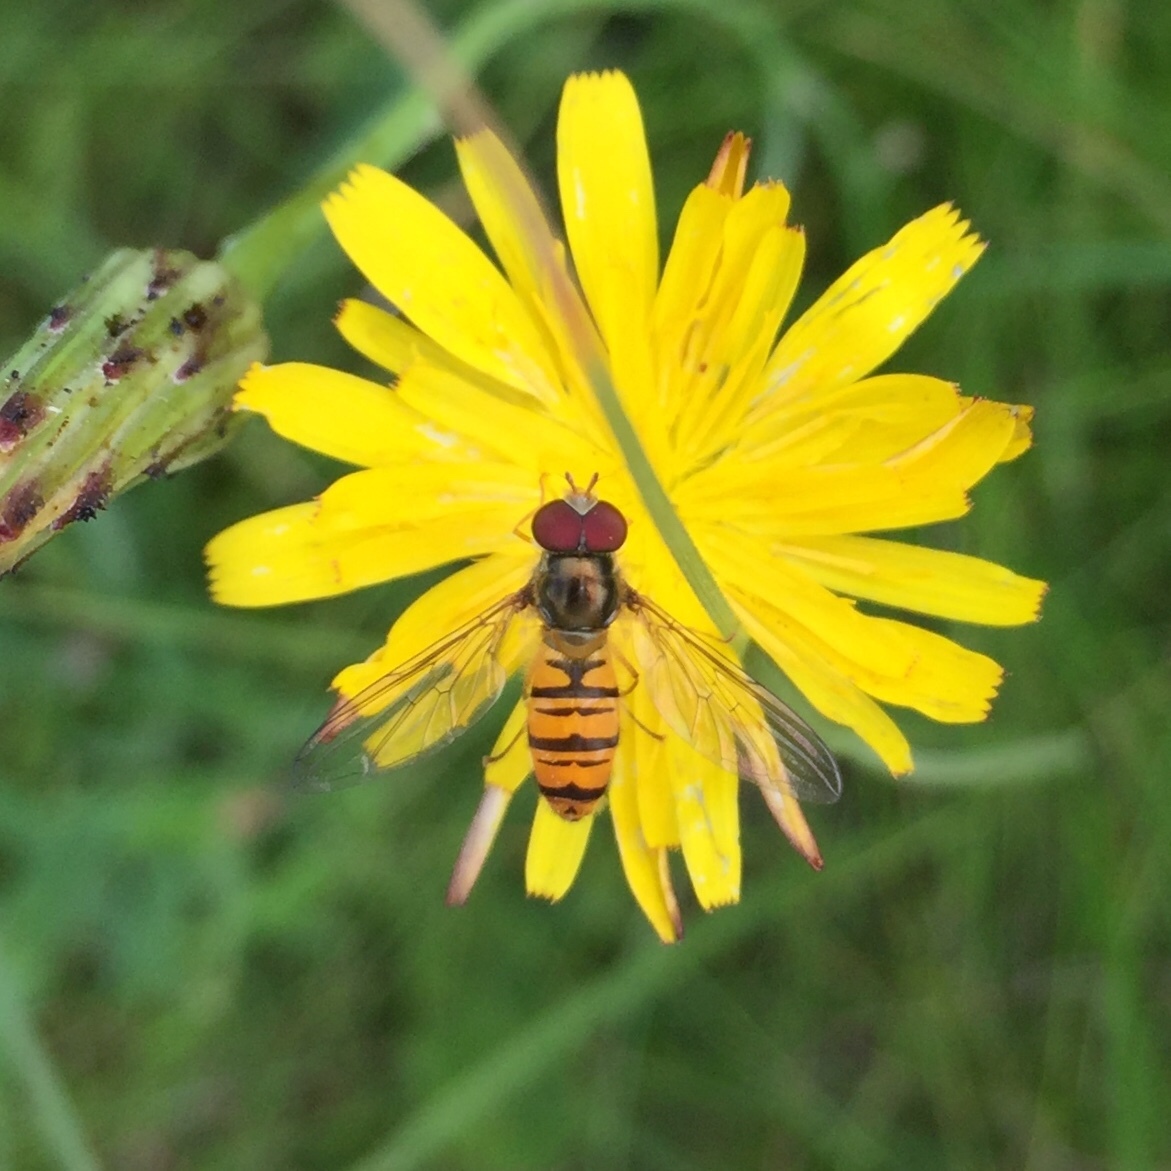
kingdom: Animalia
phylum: Arthropoda
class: Insecta
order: Diptera
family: Syrphidae
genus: Episyrphus
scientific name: Episyrphus balteatus
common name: Marmalade hoverfly
